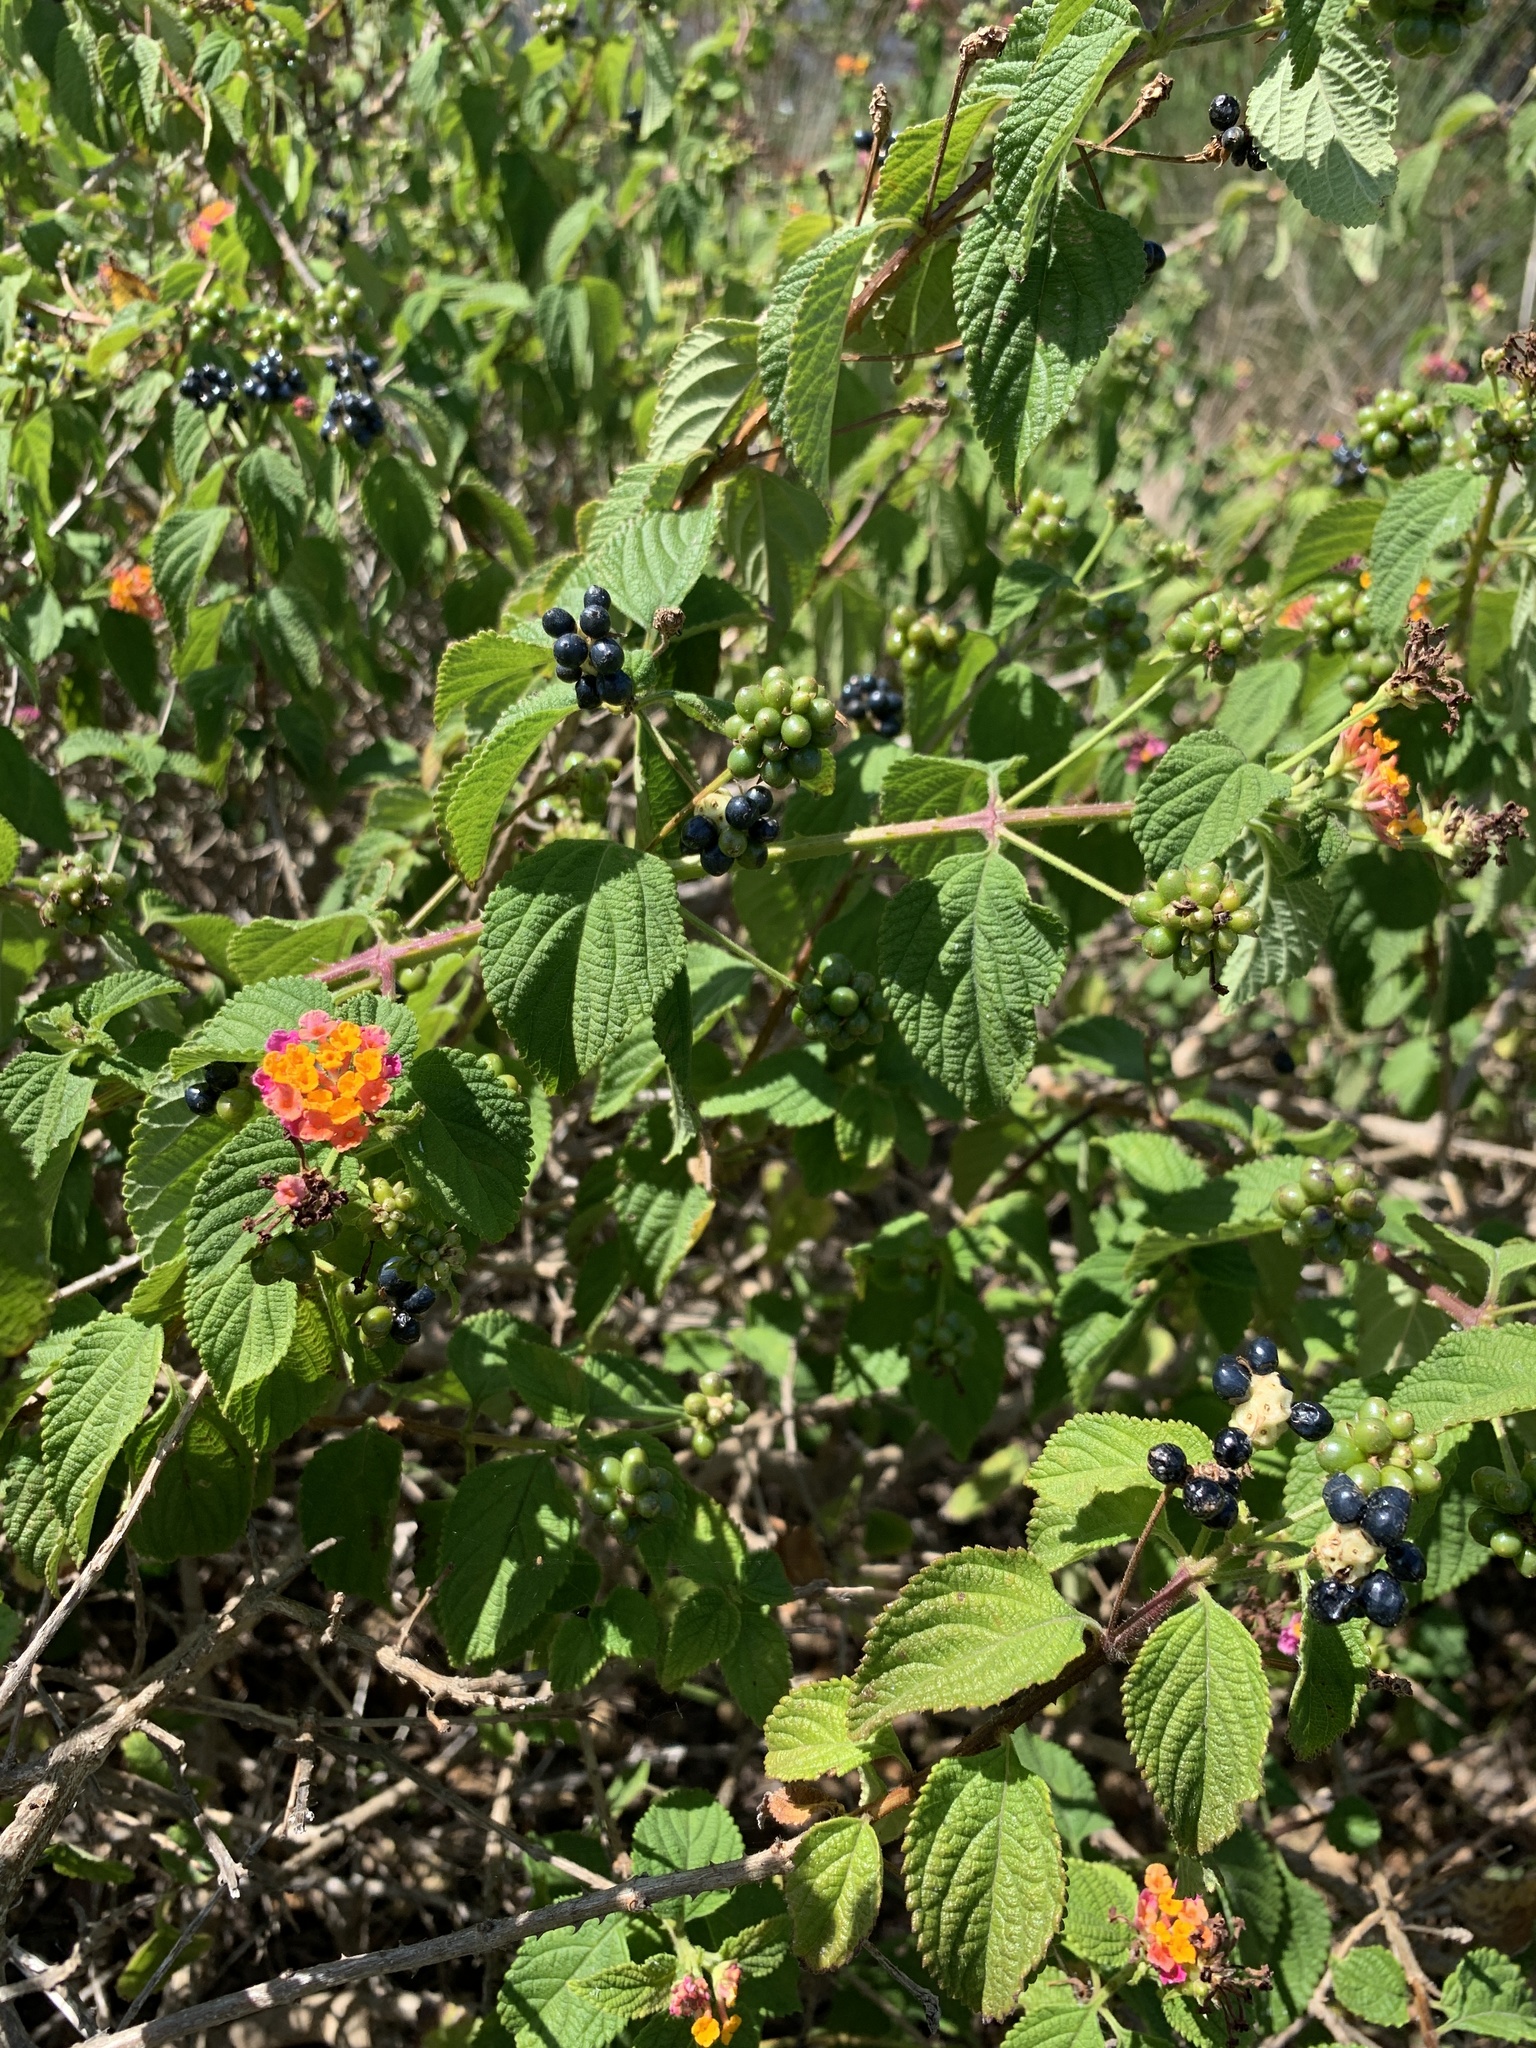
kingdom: Plantae
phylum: Tracheophyta
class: Magnoliopsida
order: Lamiales
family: Verbenaceae
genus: Lantana
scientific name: Lantana camara
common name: Lantana
